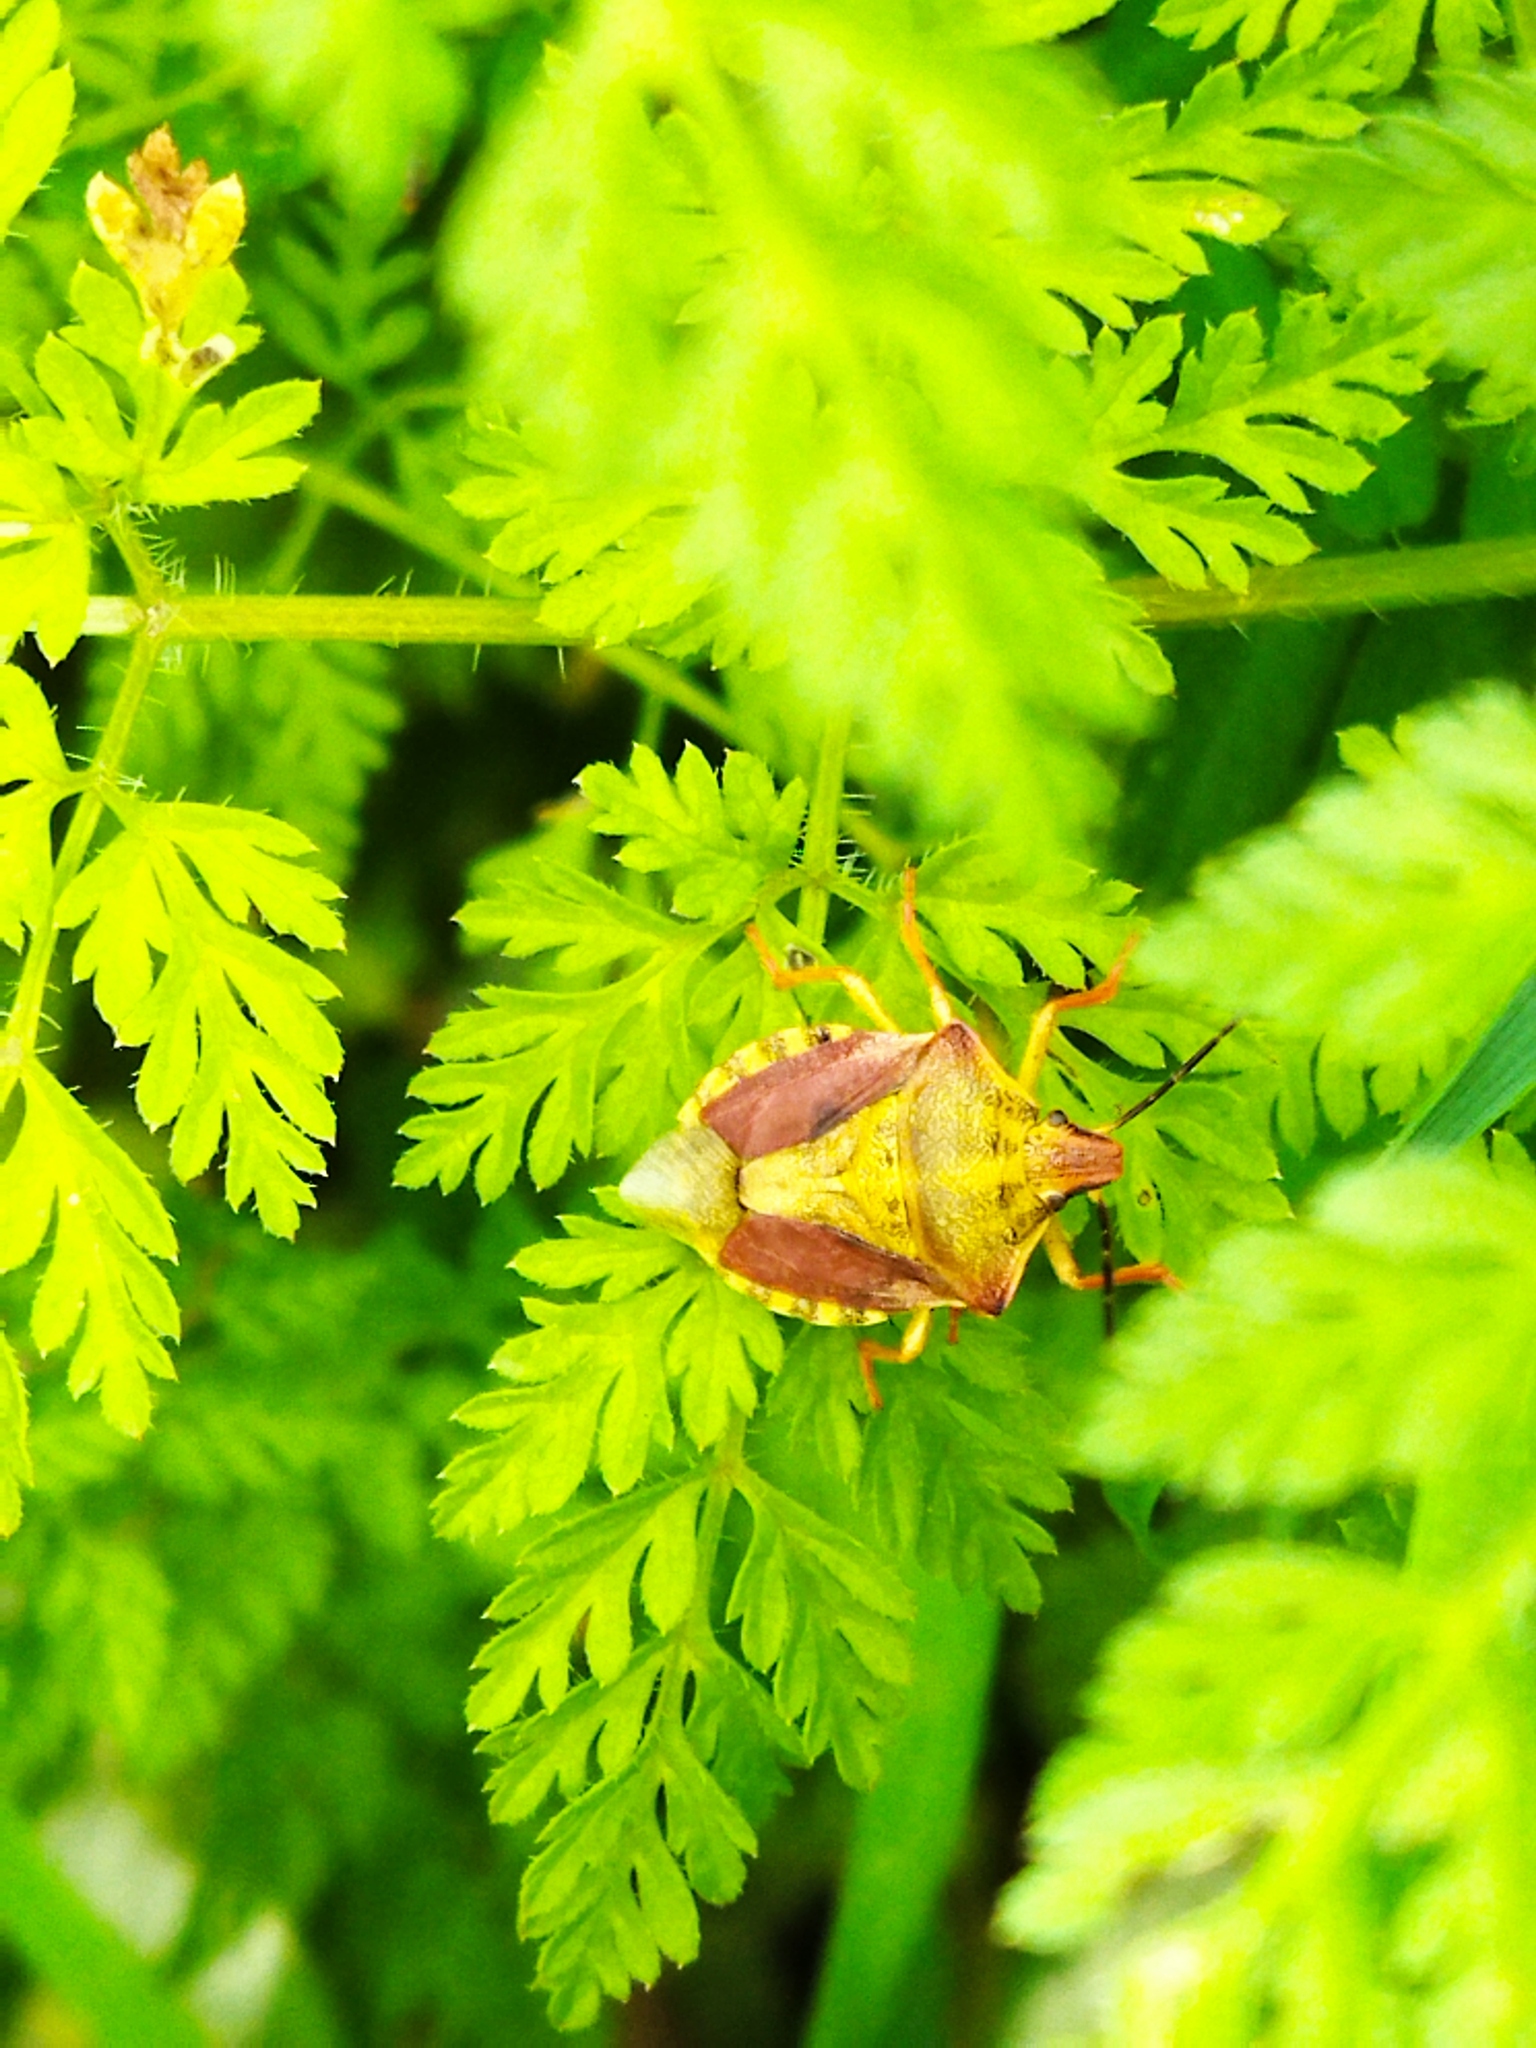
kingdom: Animalia
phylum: Arthropoda
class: Insecta
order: Hemiptera
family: Pentatomidae
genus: Carpocoris
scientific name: Carpocoris purpureipennis
